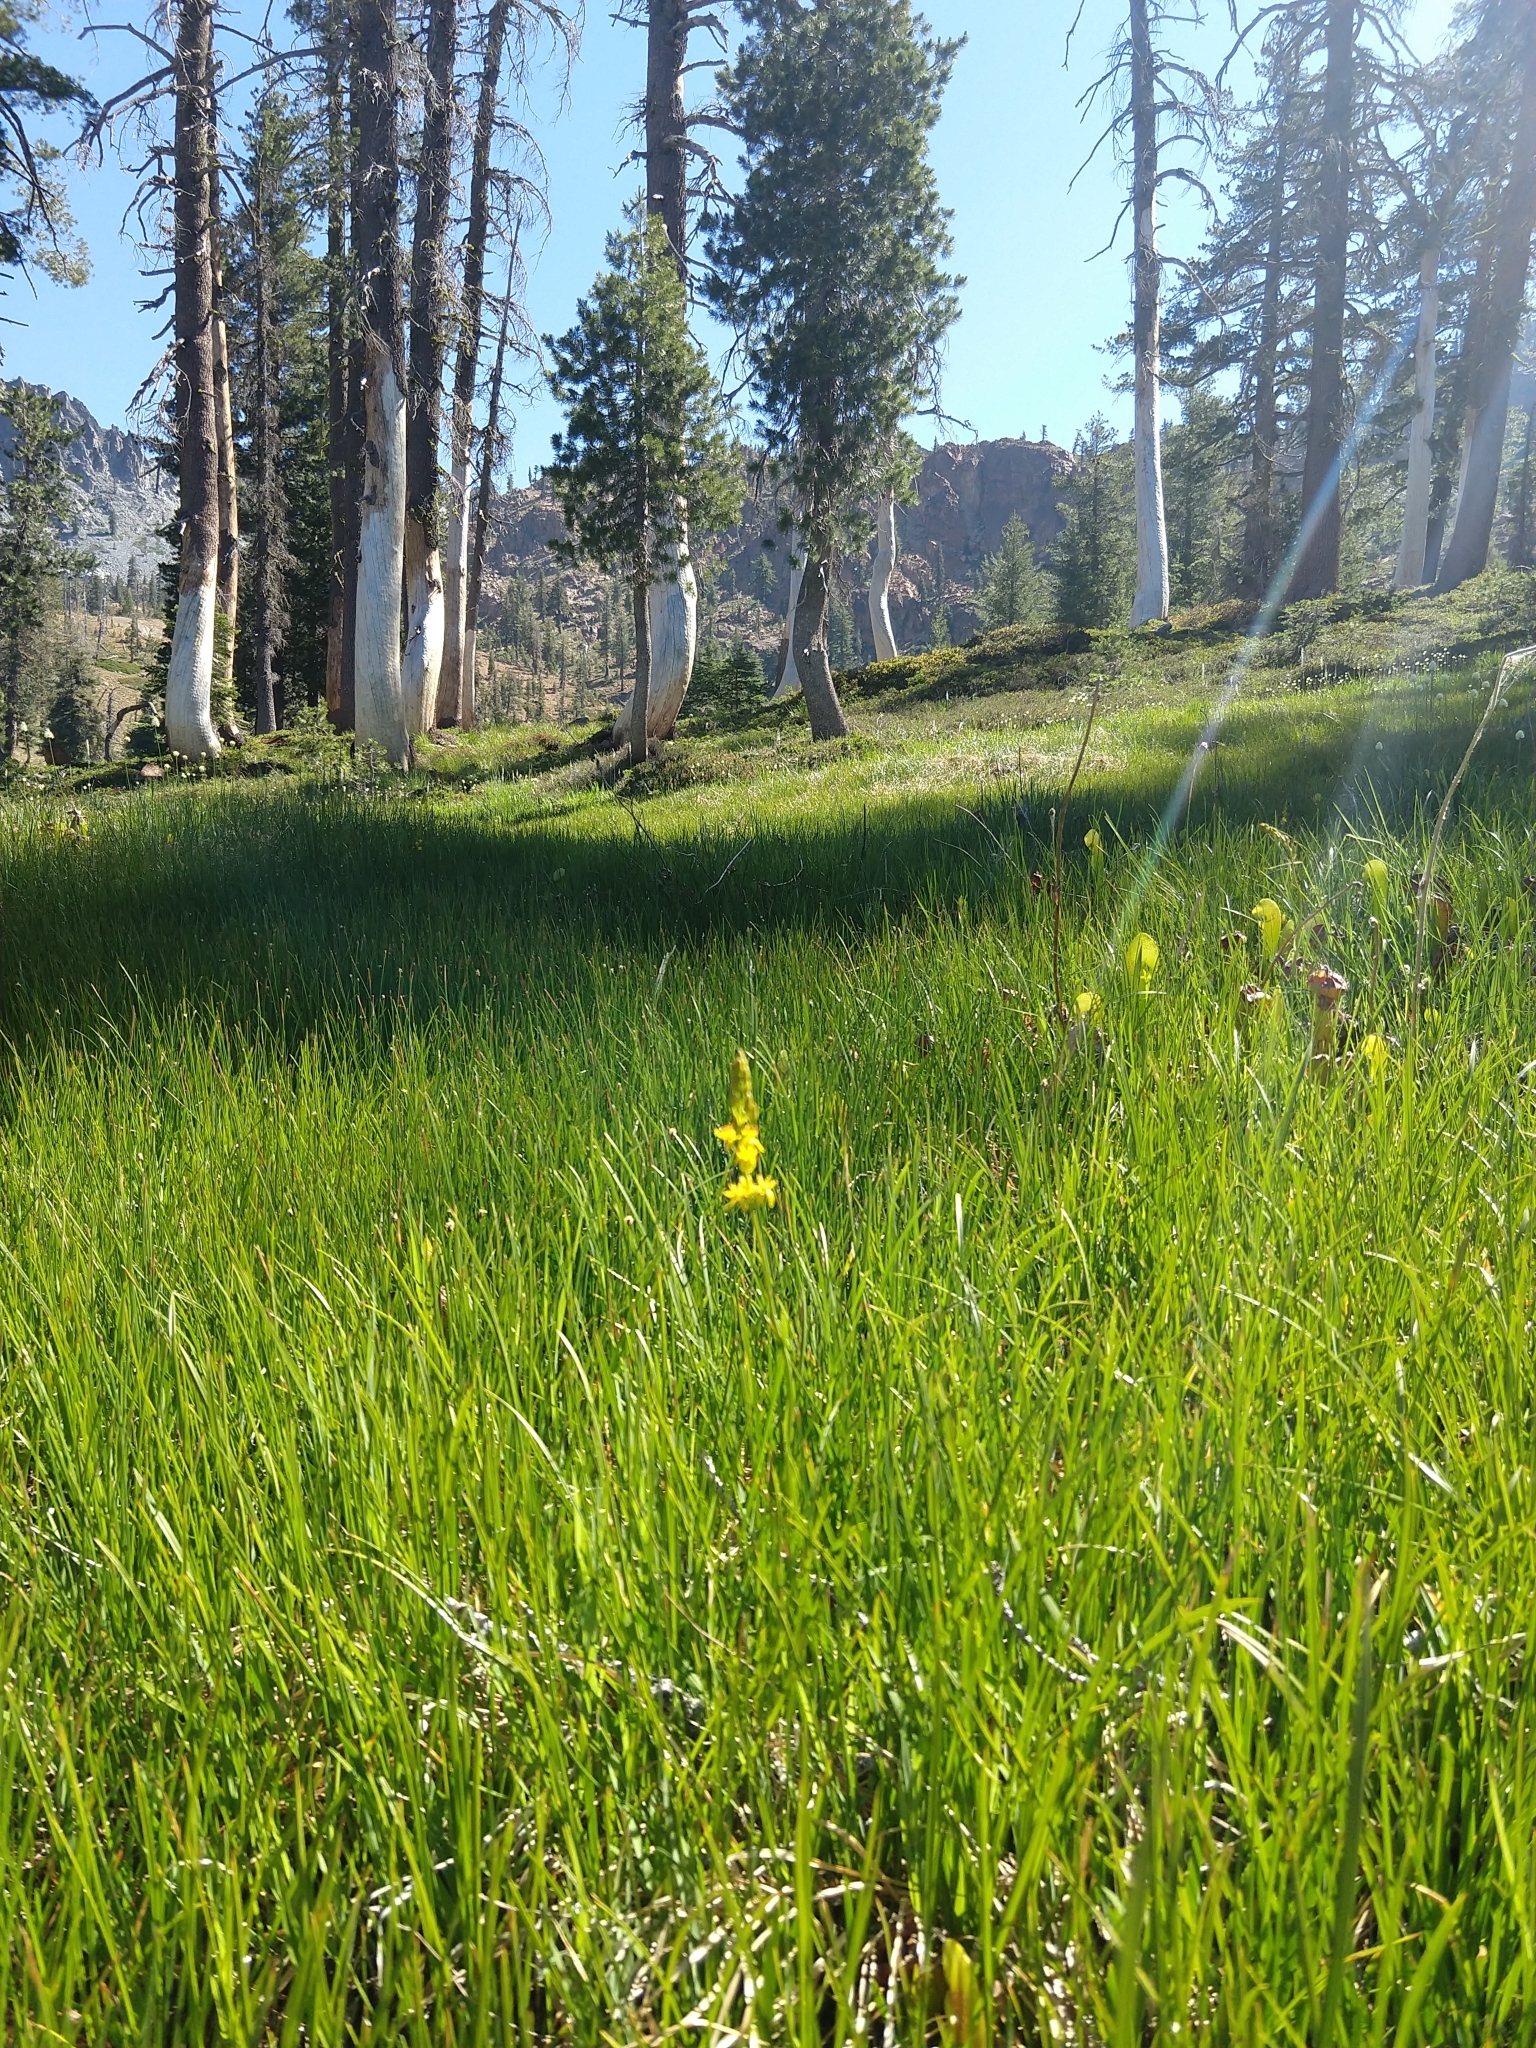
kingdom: Plantae
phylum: Tracheophyta
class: Liliopsida
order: Dioscoreales
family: Nartheciaceae
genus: Narthecium
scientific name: Narthecium californicum
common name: California bog-asphodel
